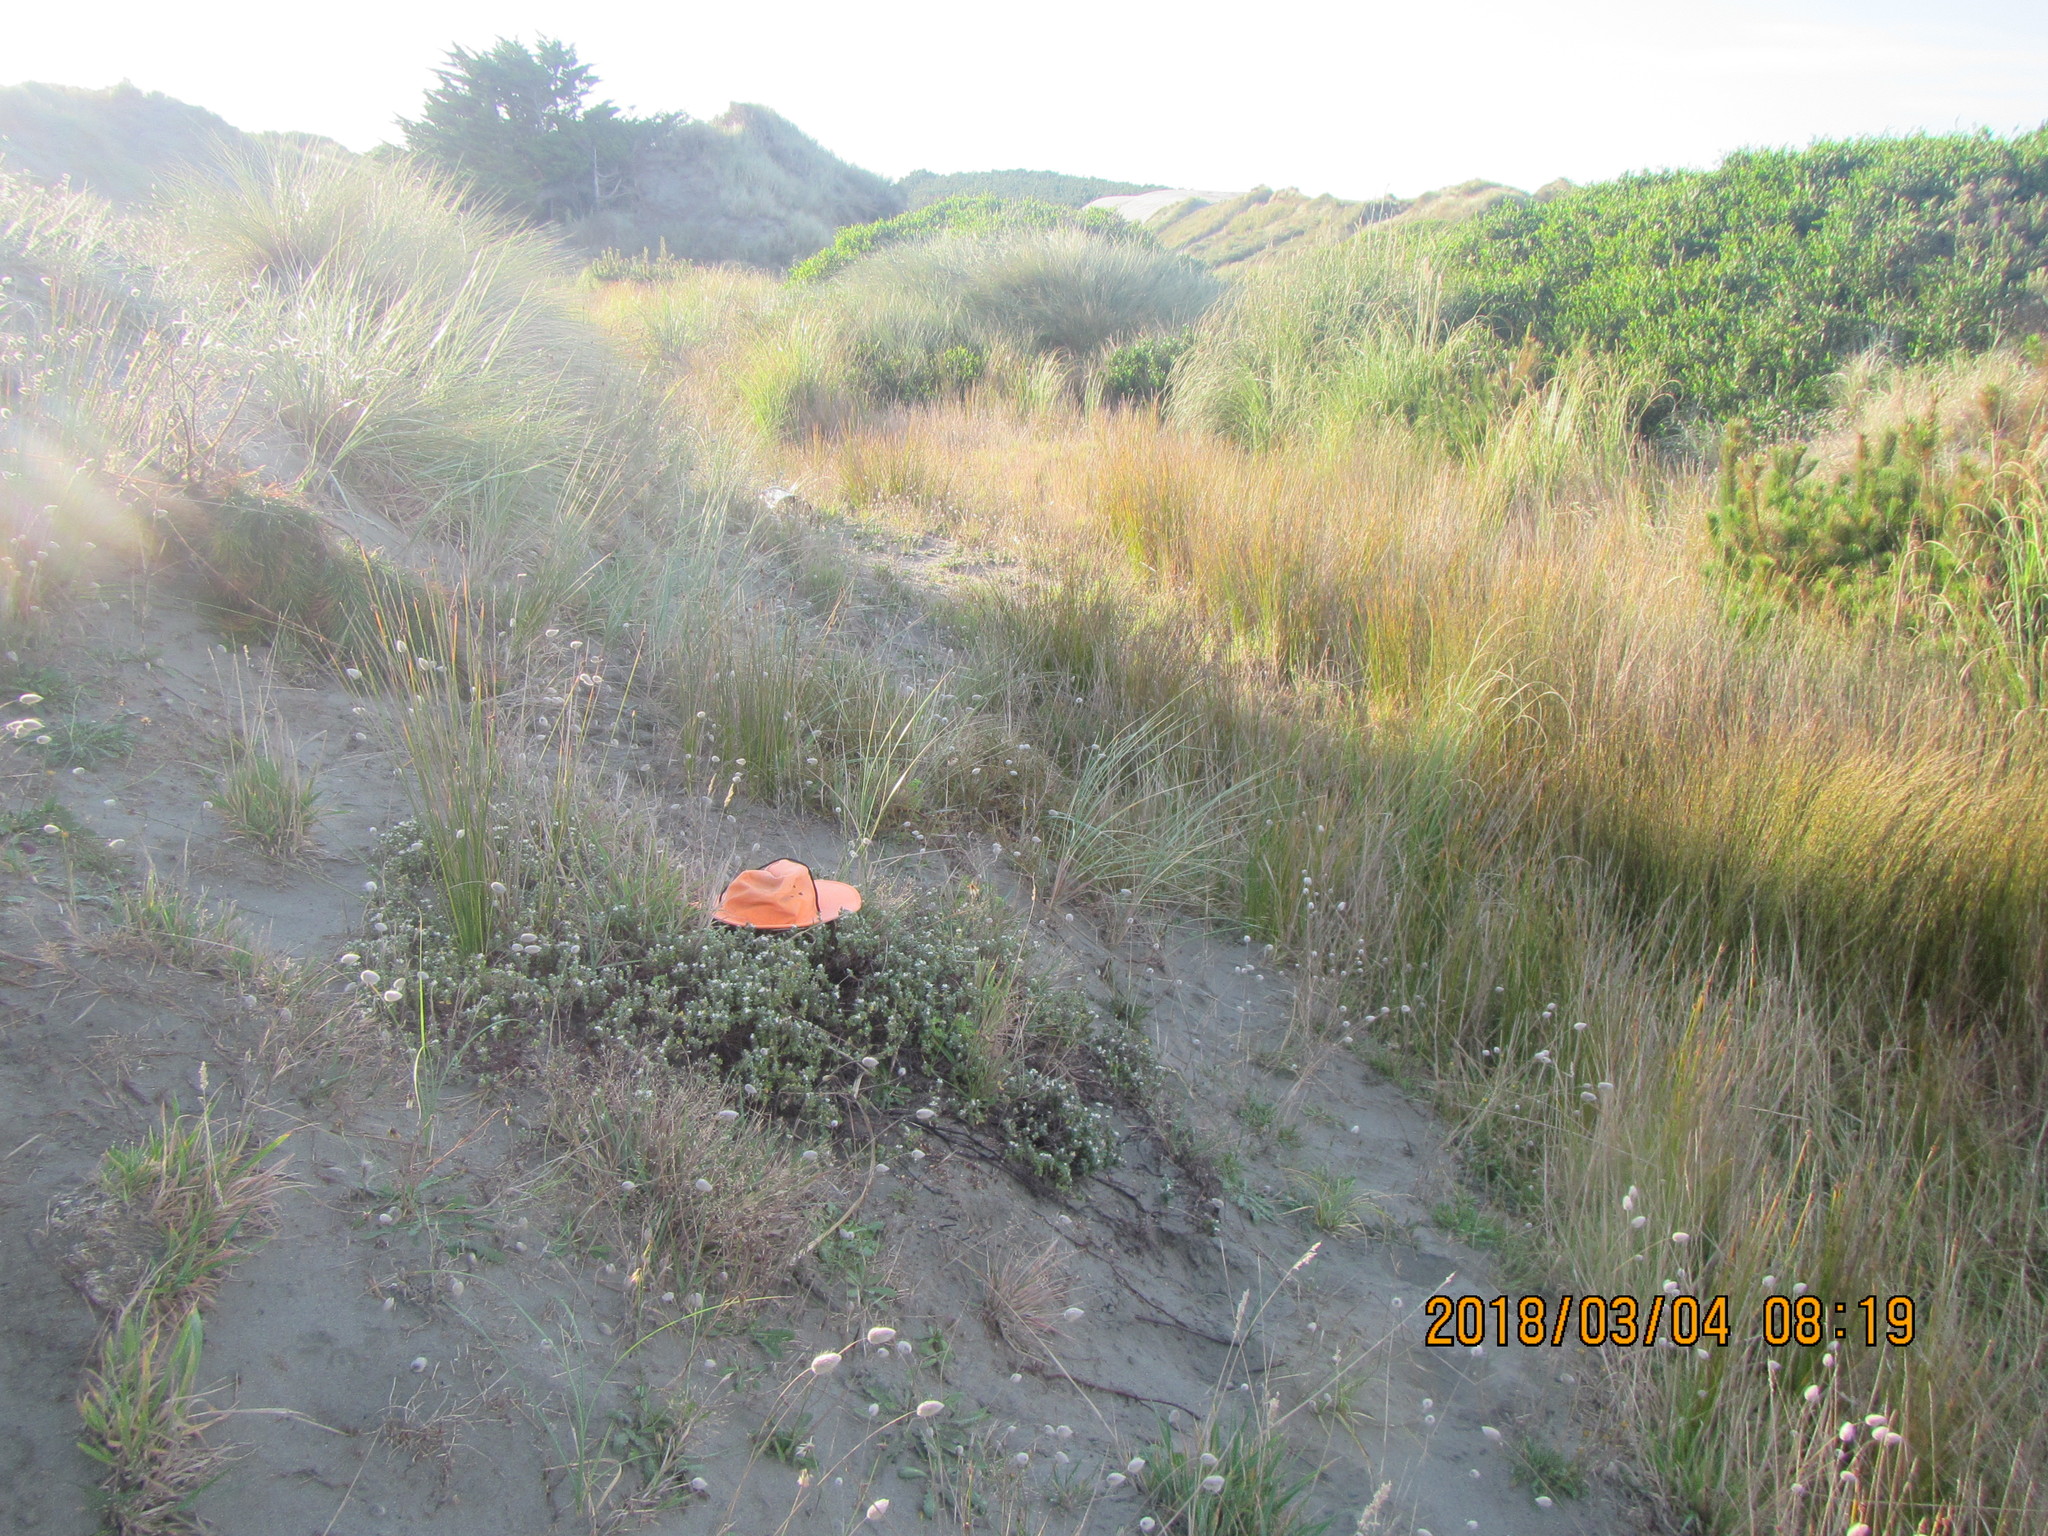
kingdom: Animalia
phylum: Arthropoda
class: Arachnida
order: Araneae
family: Theridiidae
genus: Latrodectus
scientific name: Latrodectus katipo
